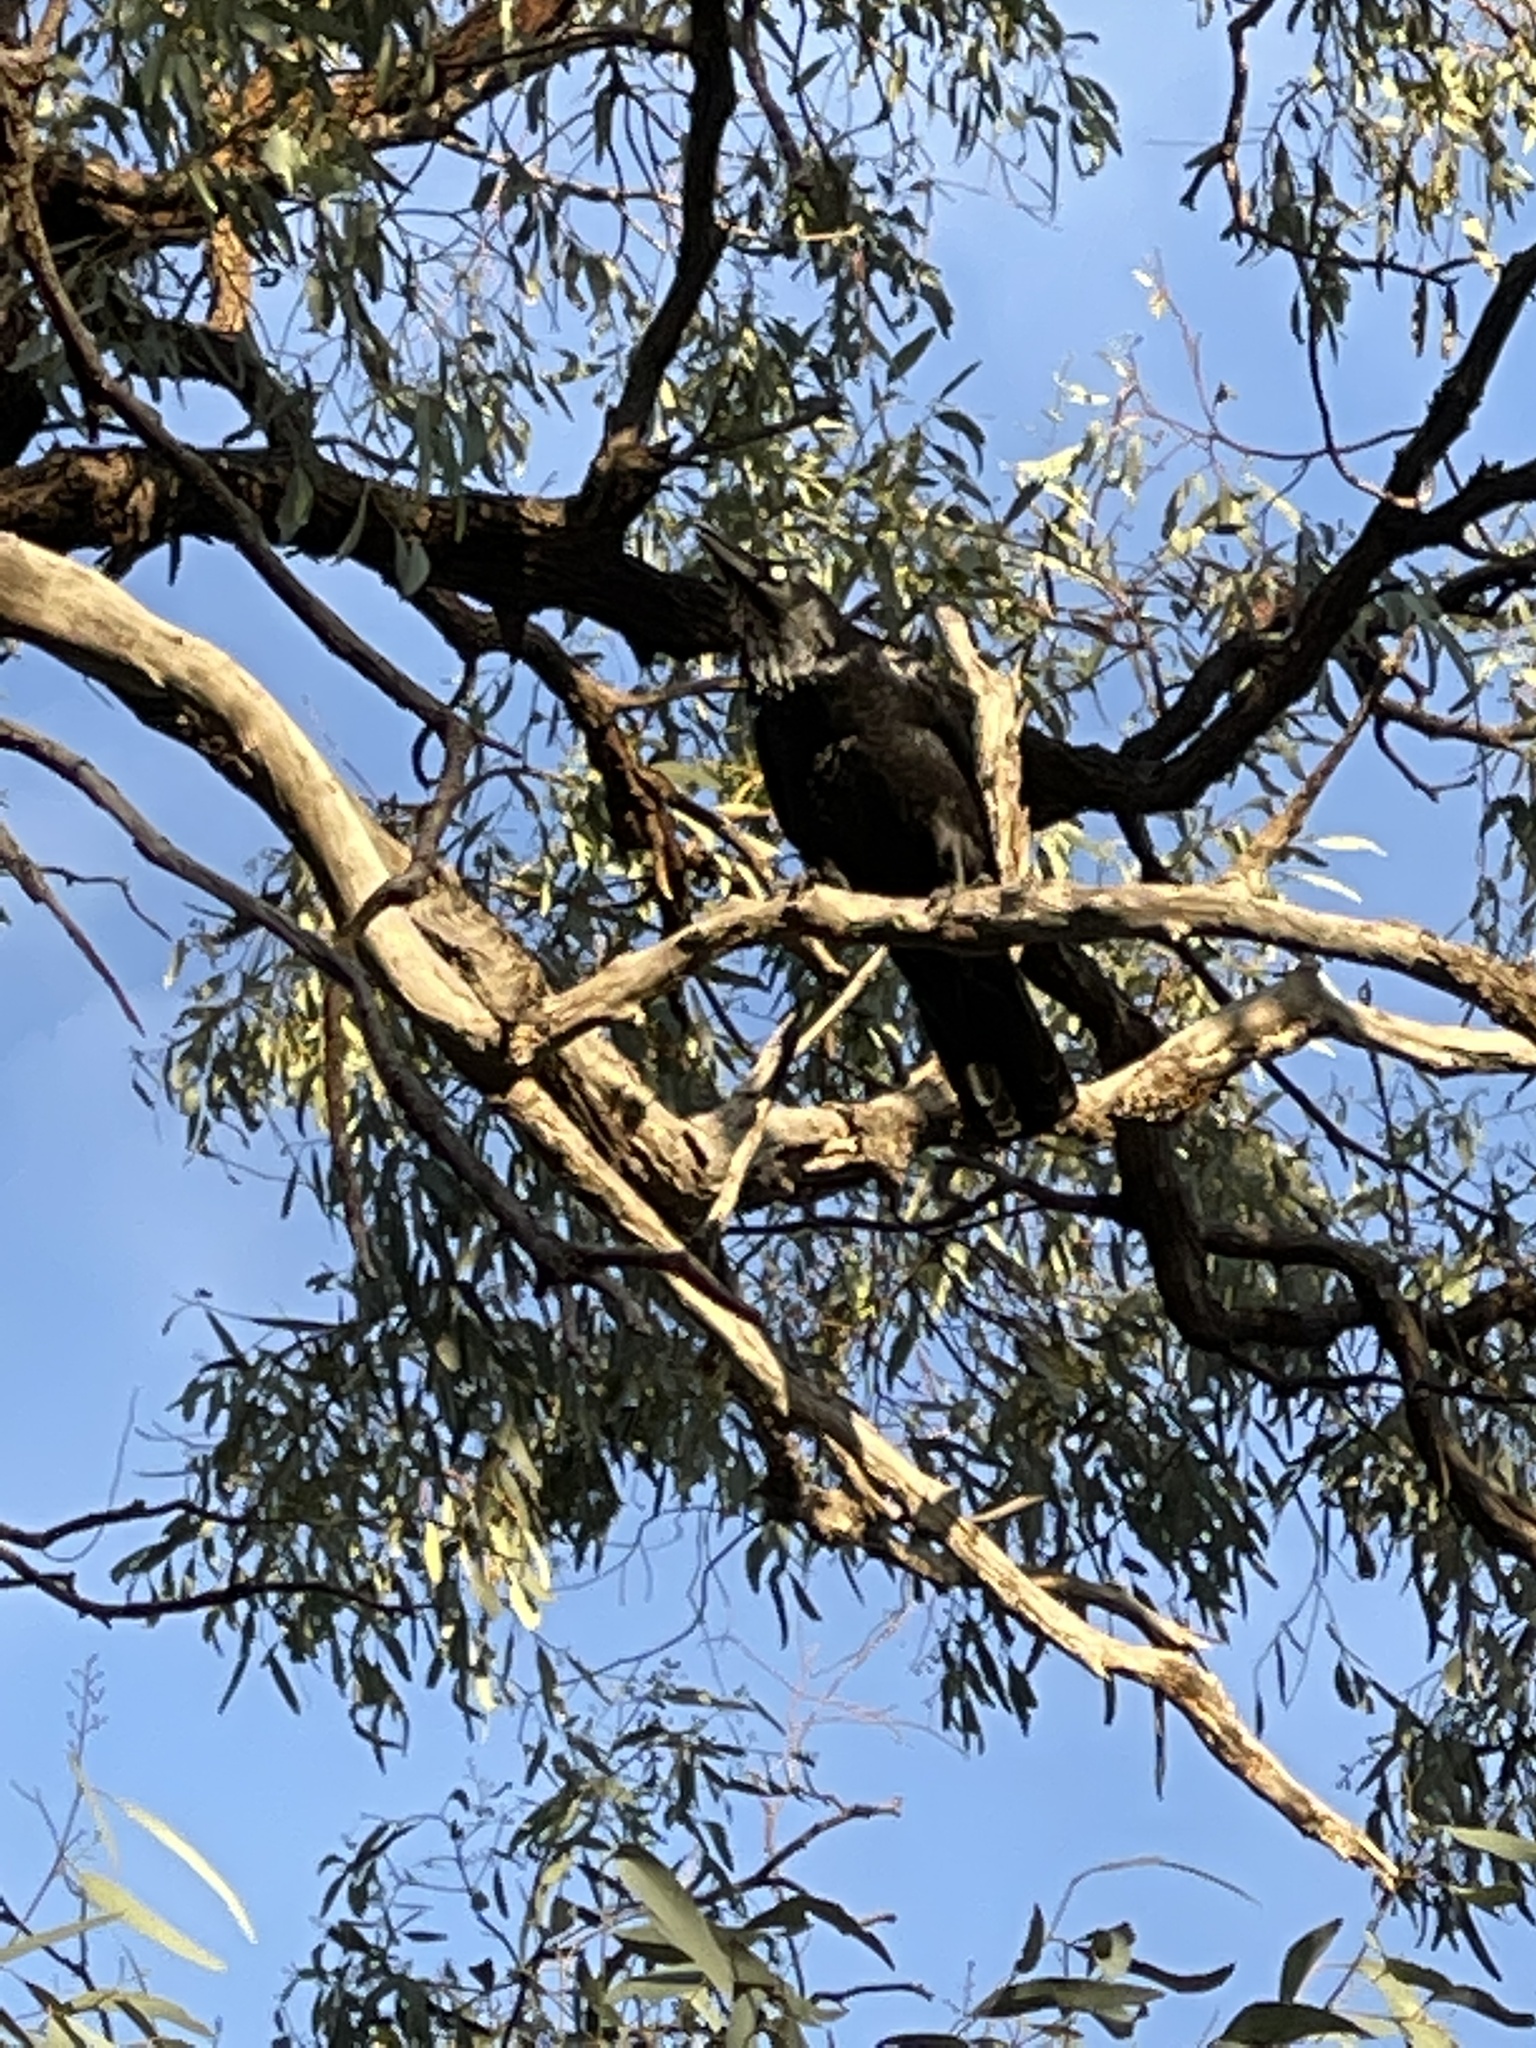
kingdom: Animalia
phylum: Chordata
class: Aves
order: Passeriformes
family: Corvidae
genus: Corvus
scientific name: Corvus coronoides
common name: Australian raven
